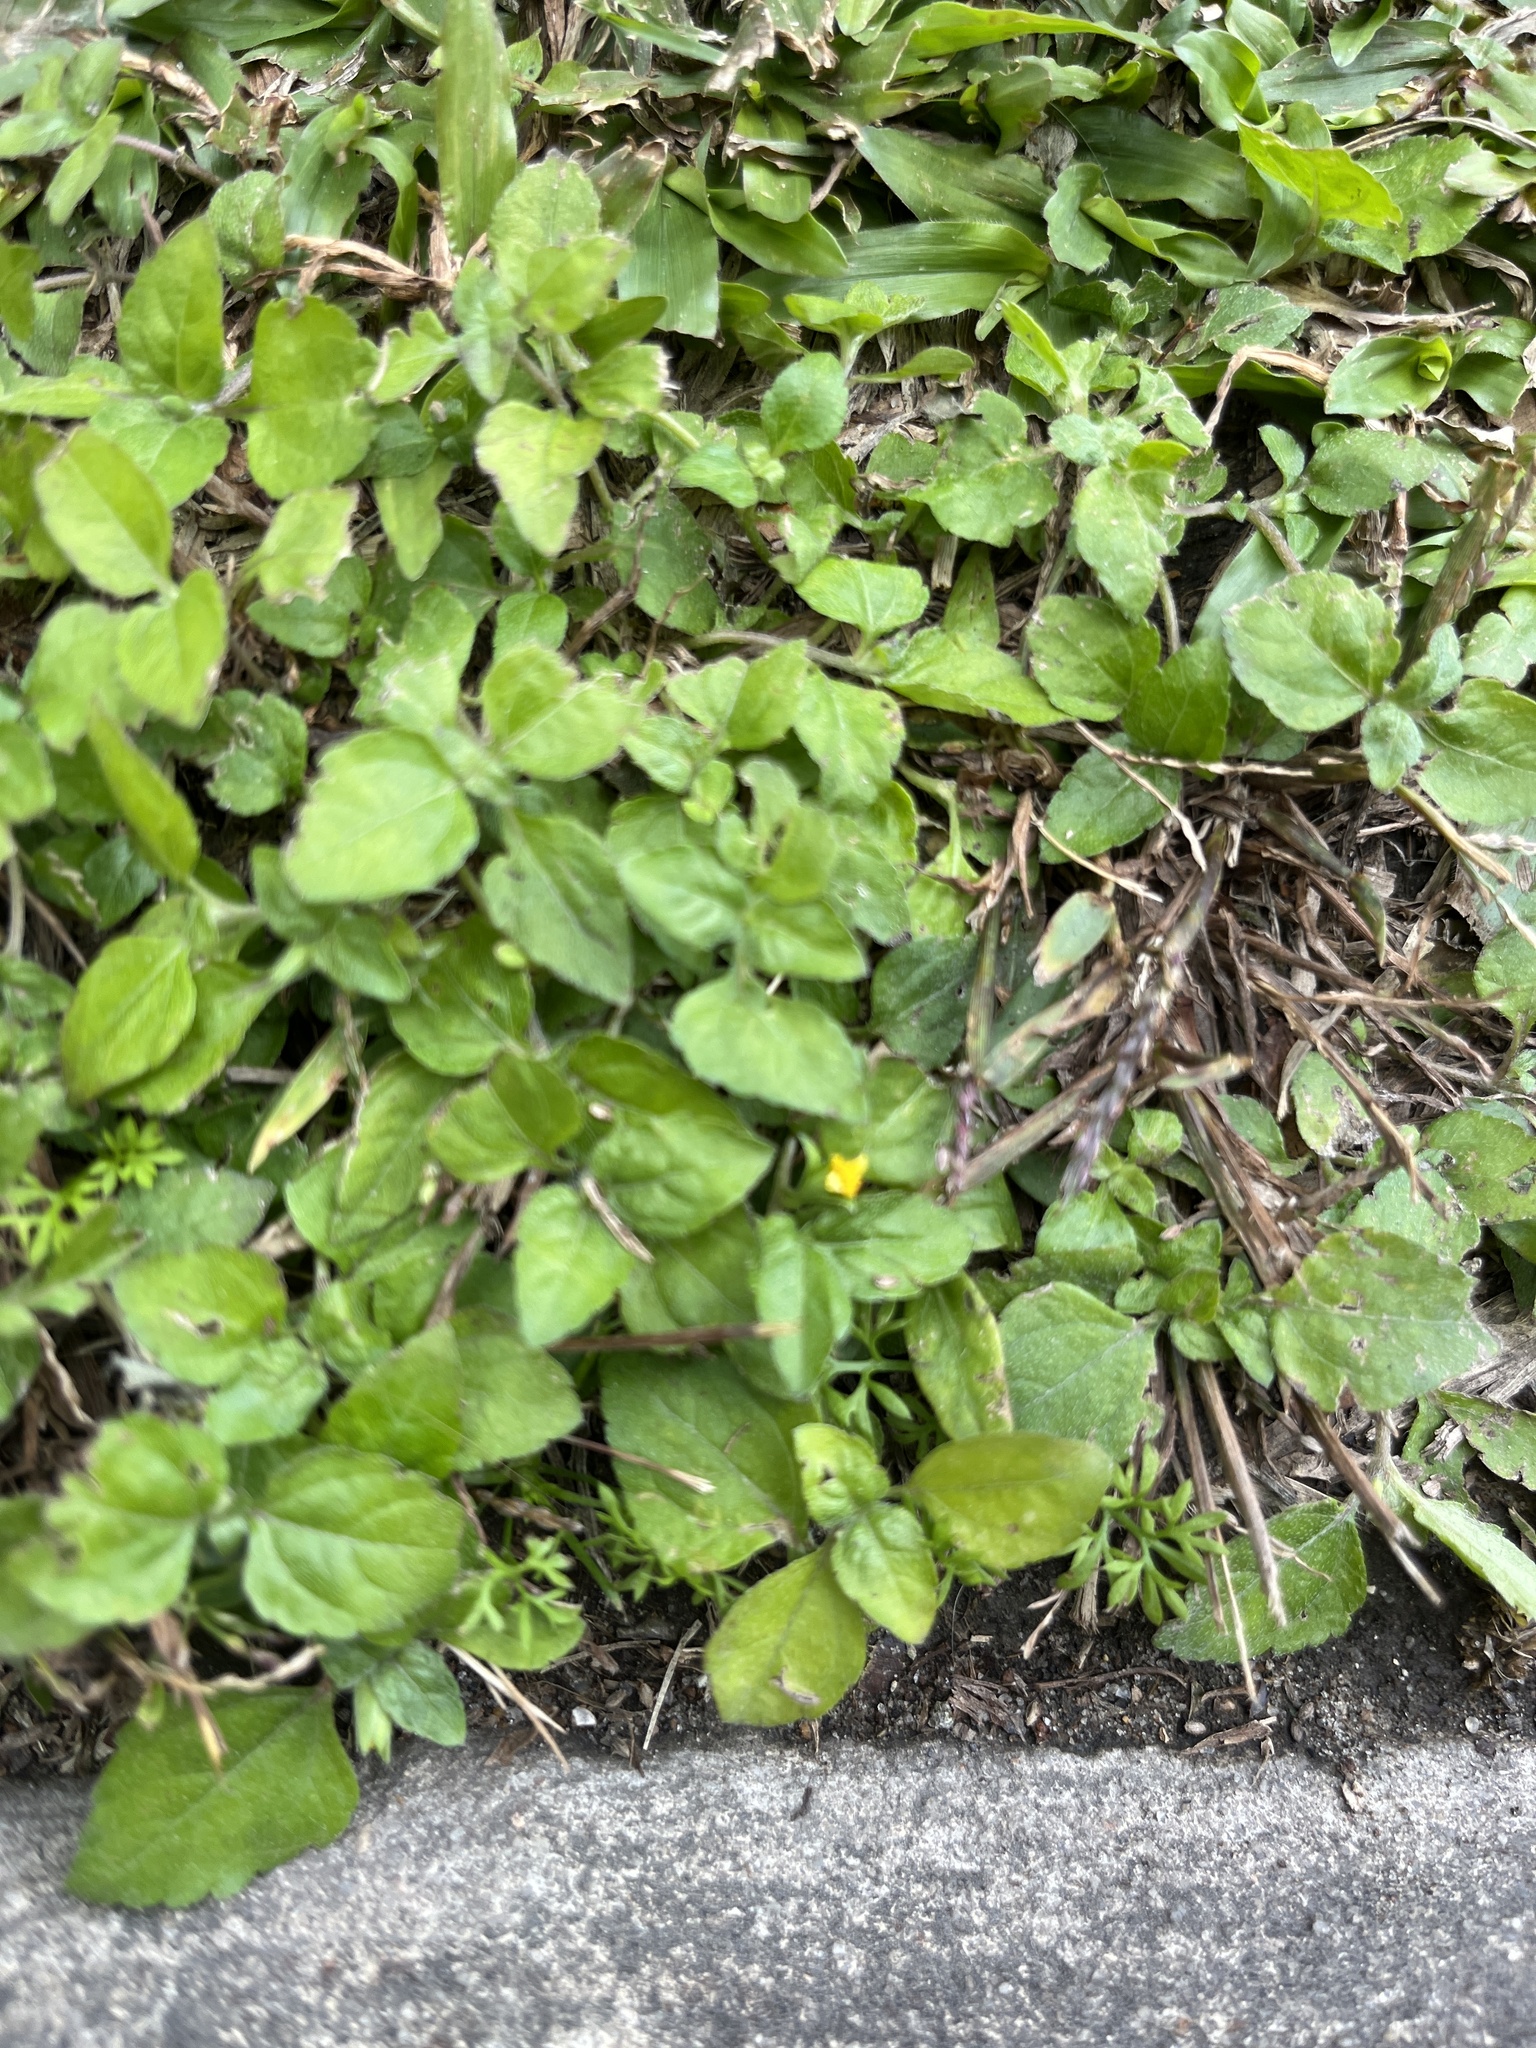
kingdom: Plantae
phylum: Tracheophyta
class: Magnoliopsida
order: Asterales
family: Asteraceae
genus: Calyptocarpus
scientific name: Calyptocarpus vialis
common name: Straggler daisy
